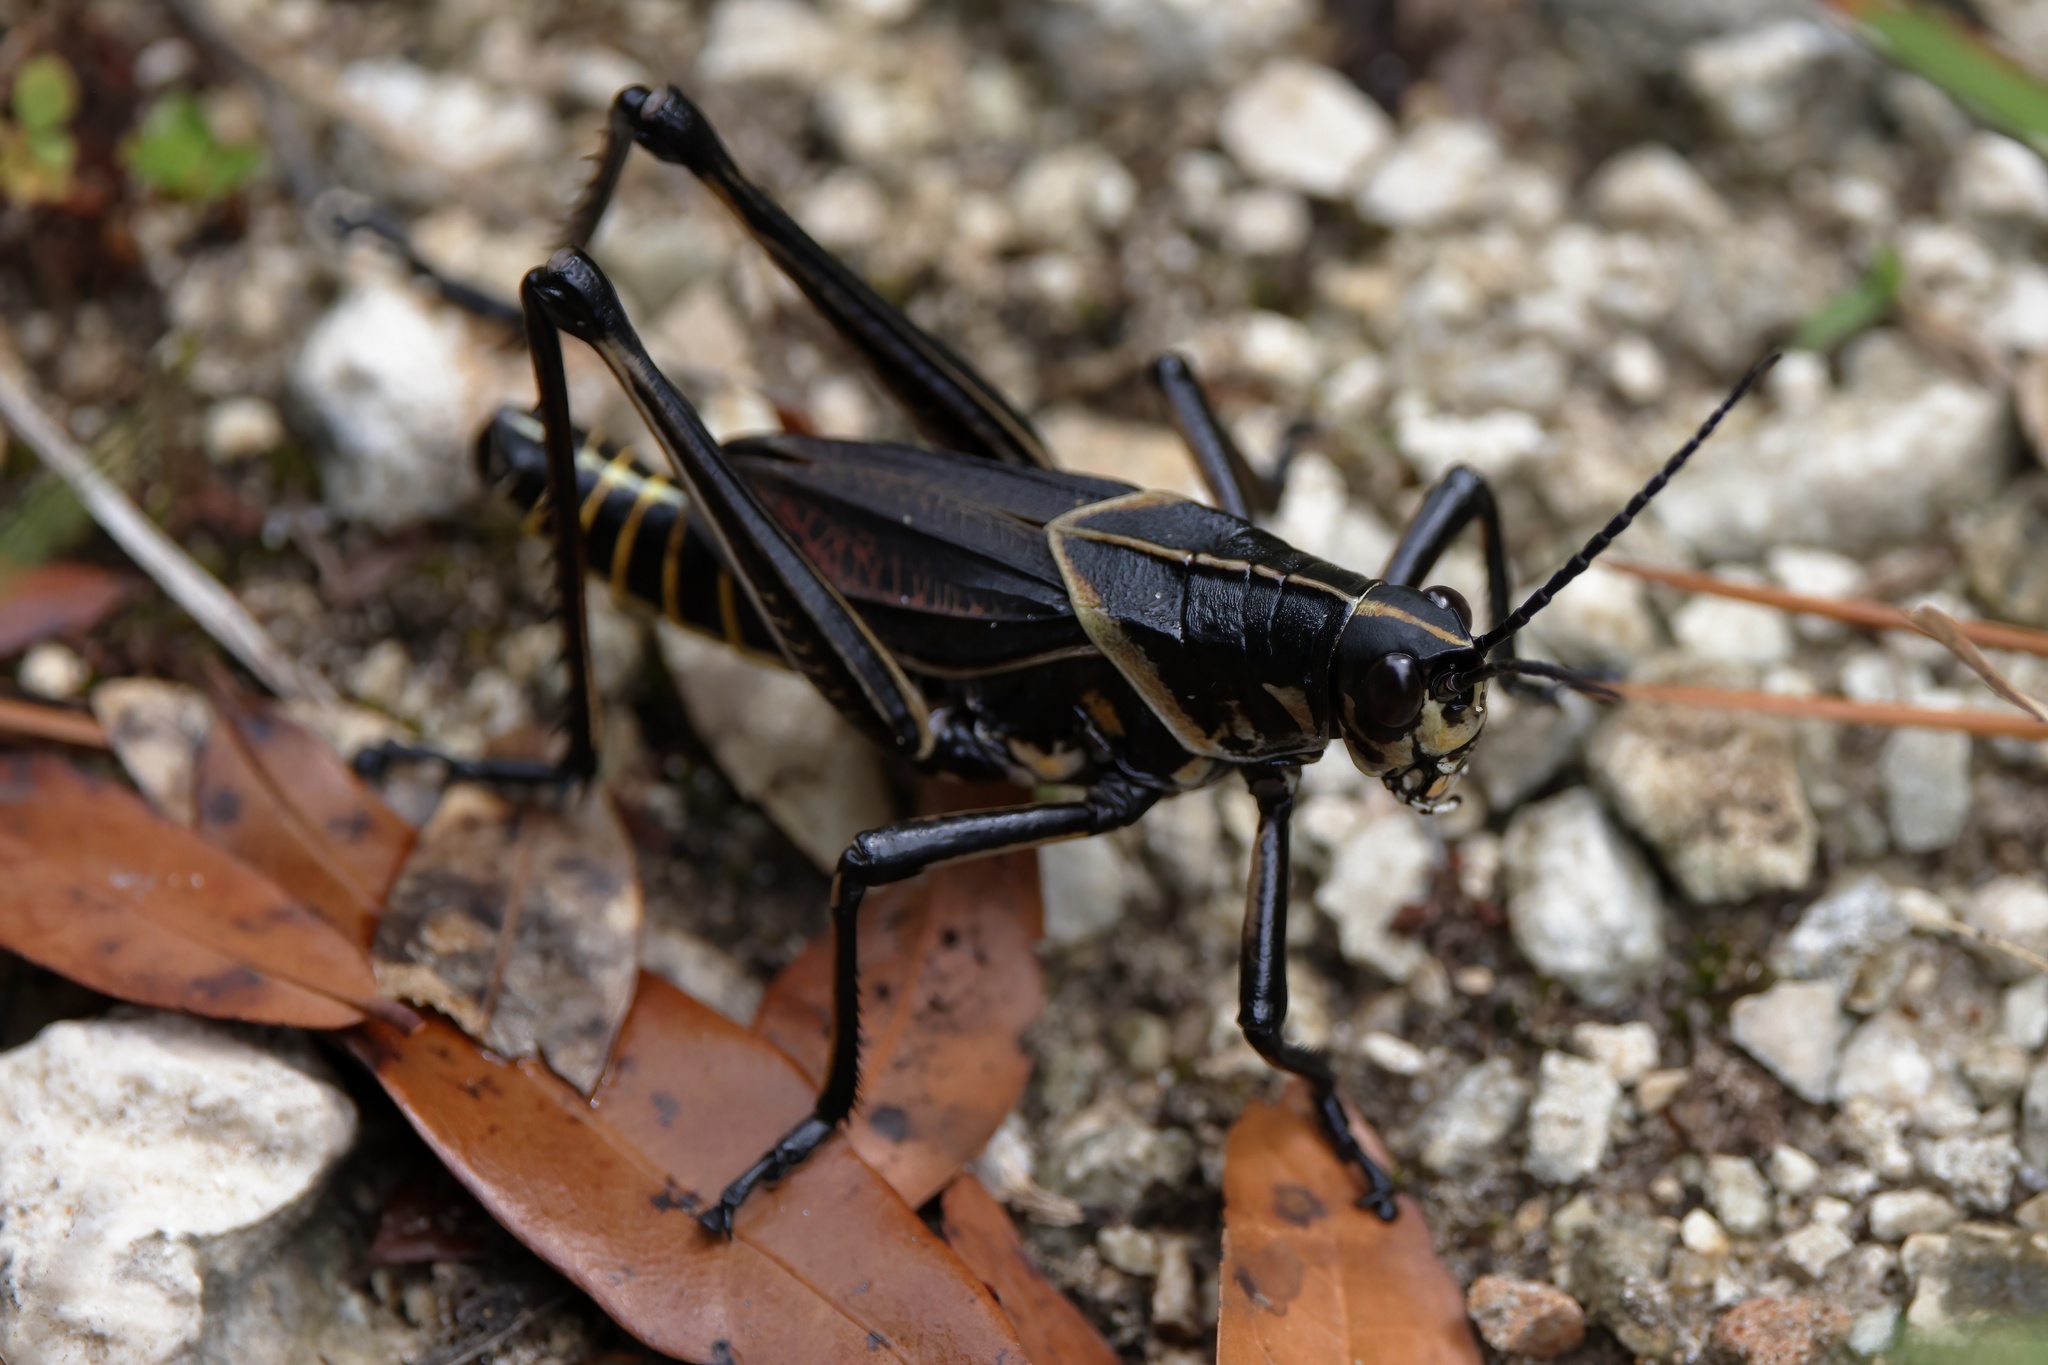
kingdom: Animalia
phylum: Arthropoda
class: Insecta
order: Orthoptera
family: Romaleidae
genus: Romalea
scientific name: Romalea microptera
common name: Eastern lubber grasshopper
